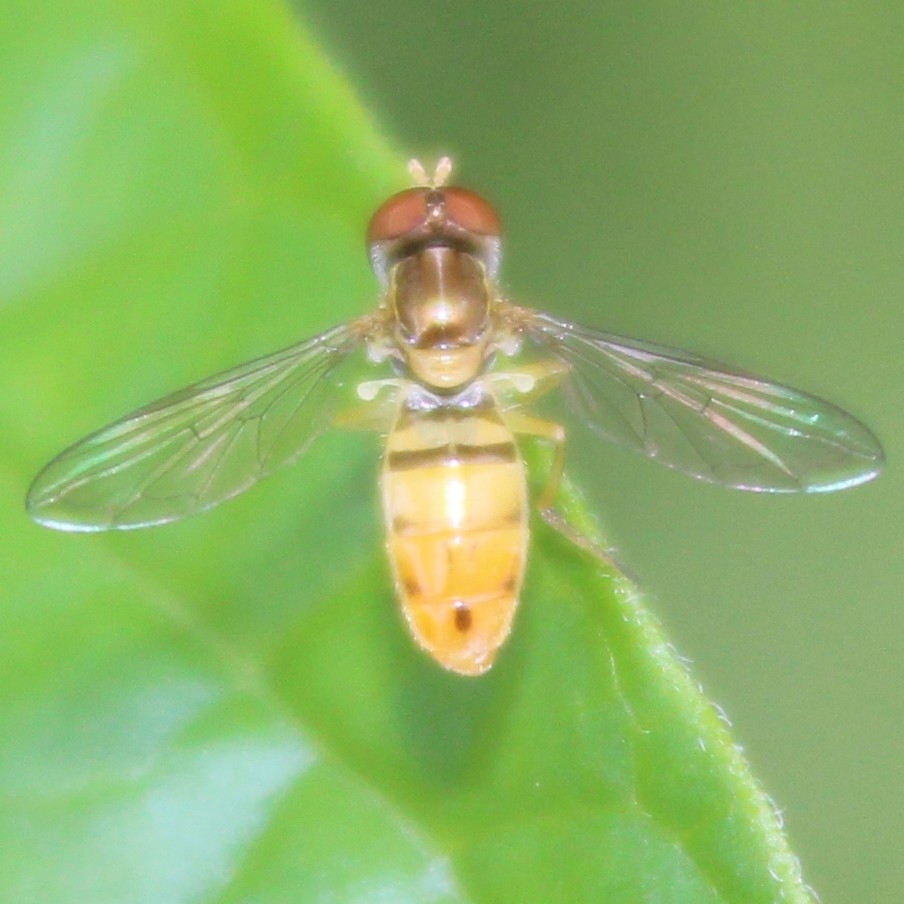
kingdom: Animalia
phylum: Arthropoda
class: Insecta
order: Diptera
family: Syrphidae
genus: Toxomerus
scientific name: Toxomerus marginatus
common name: Syrphid fly
